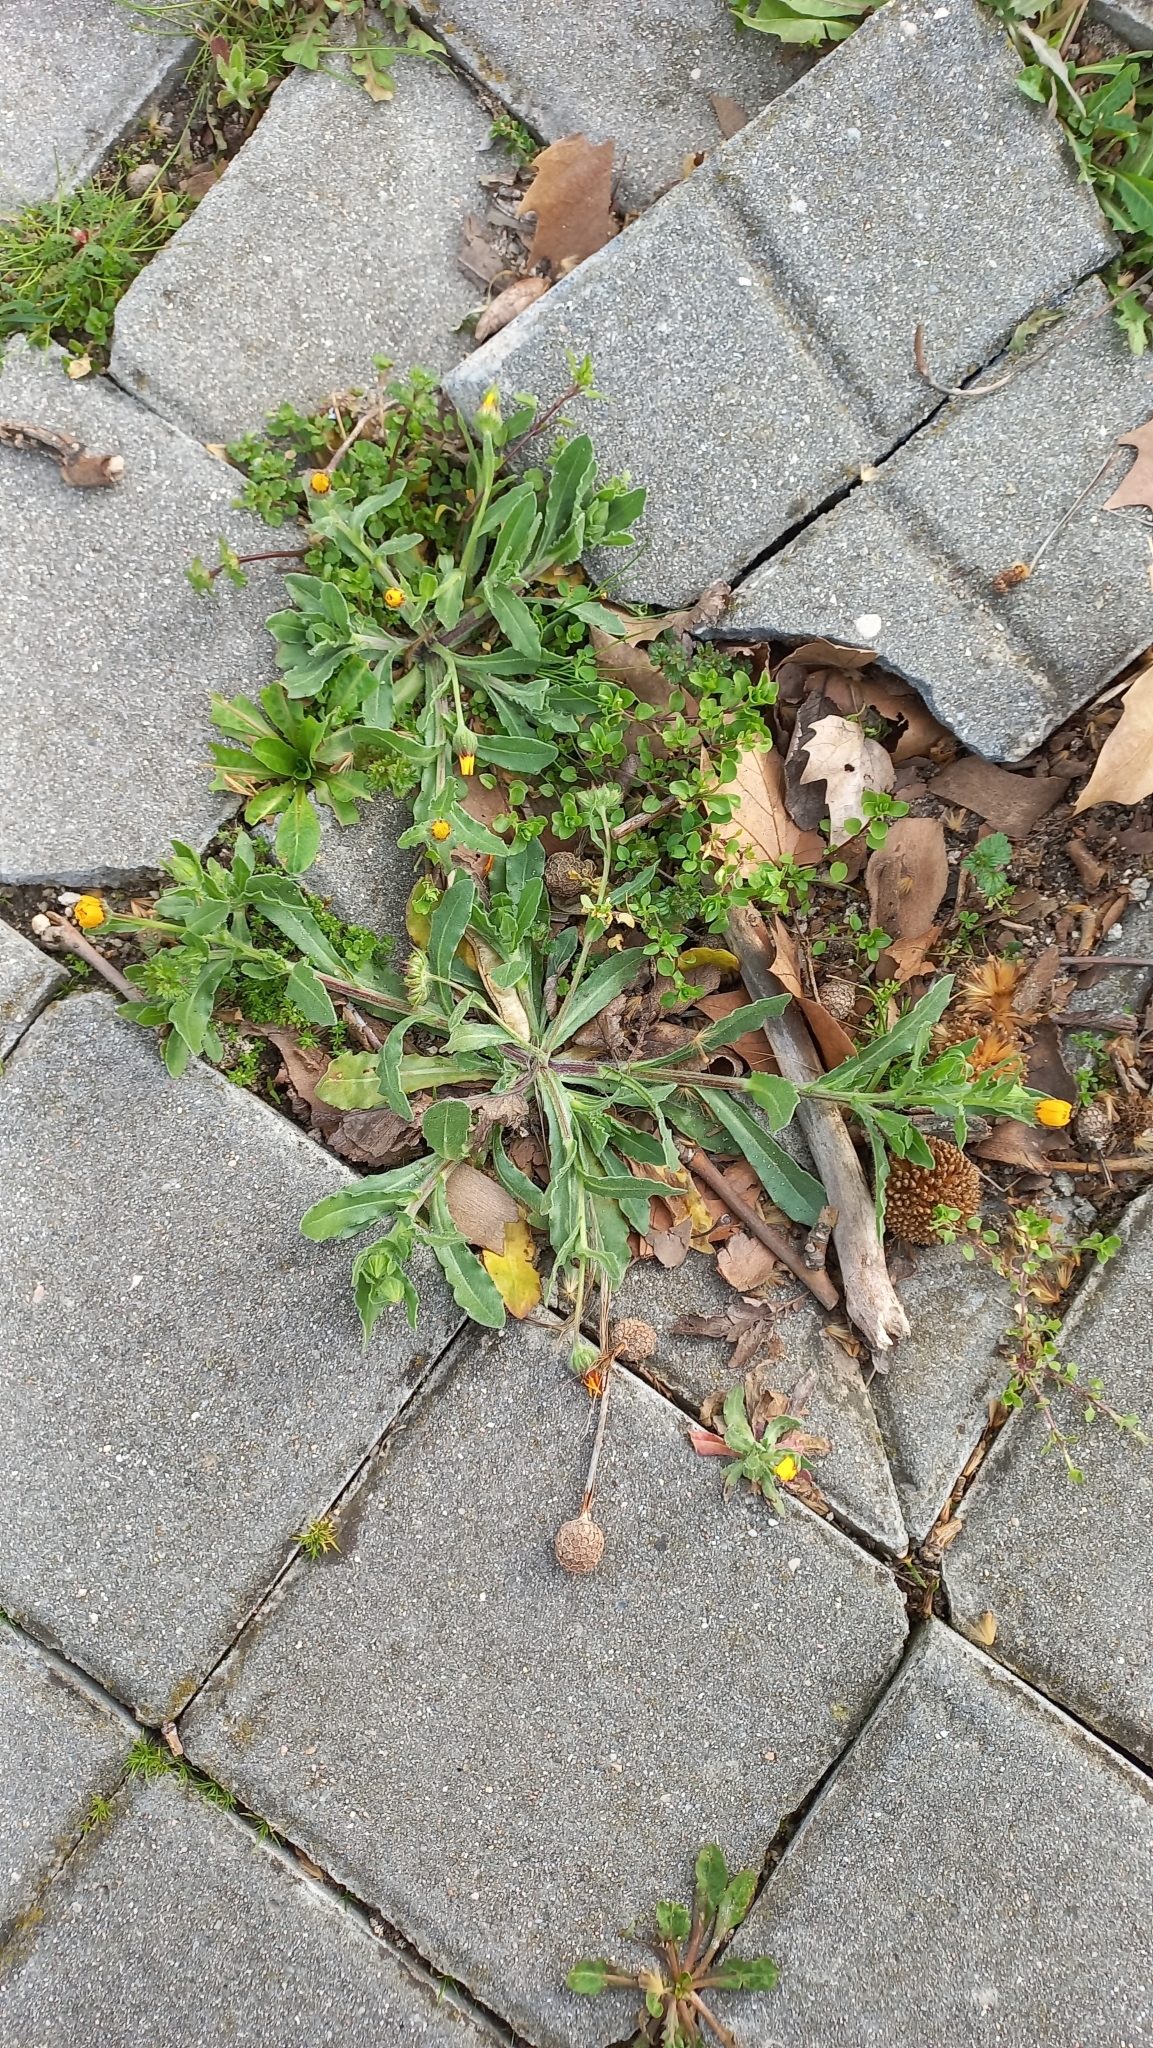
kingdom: Plantae
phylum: Tracheophyta
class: Magnoliopsida
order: Asterales
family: Asteraceae
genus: Calendula
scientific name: Calendula arvensis
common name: Field marigold
